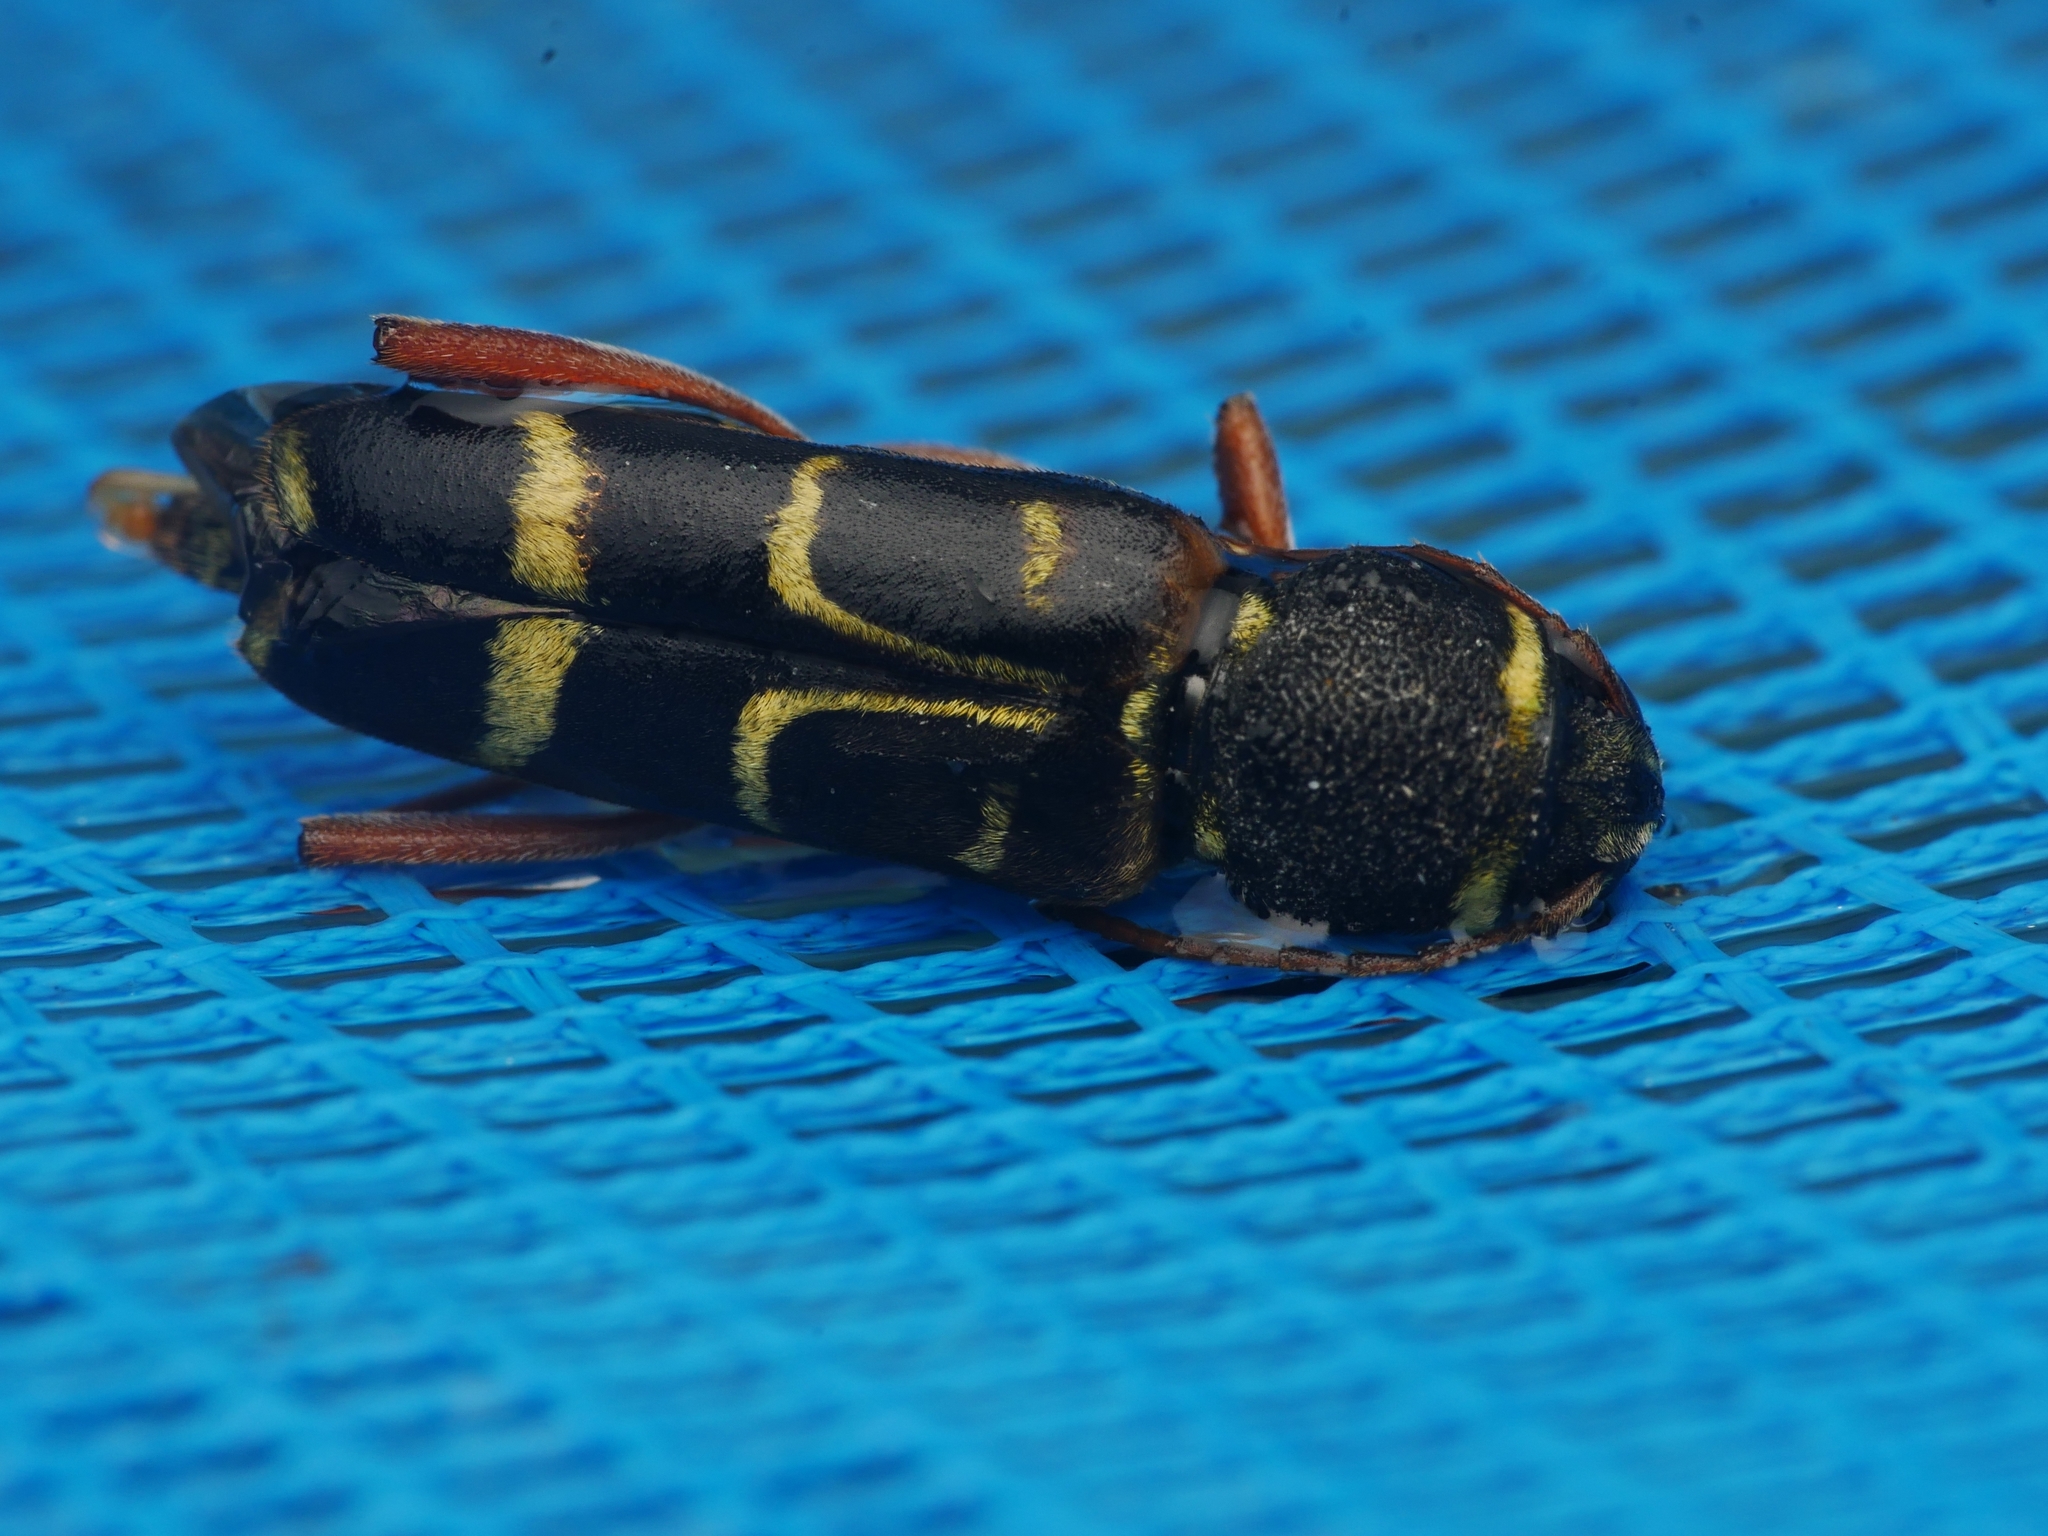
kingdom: Animalia
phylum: Arthropoda
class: Insecta
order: Coleoptera
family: Cerambycidae
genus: Xylotrechus
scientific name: Xylotrechus arvicola
